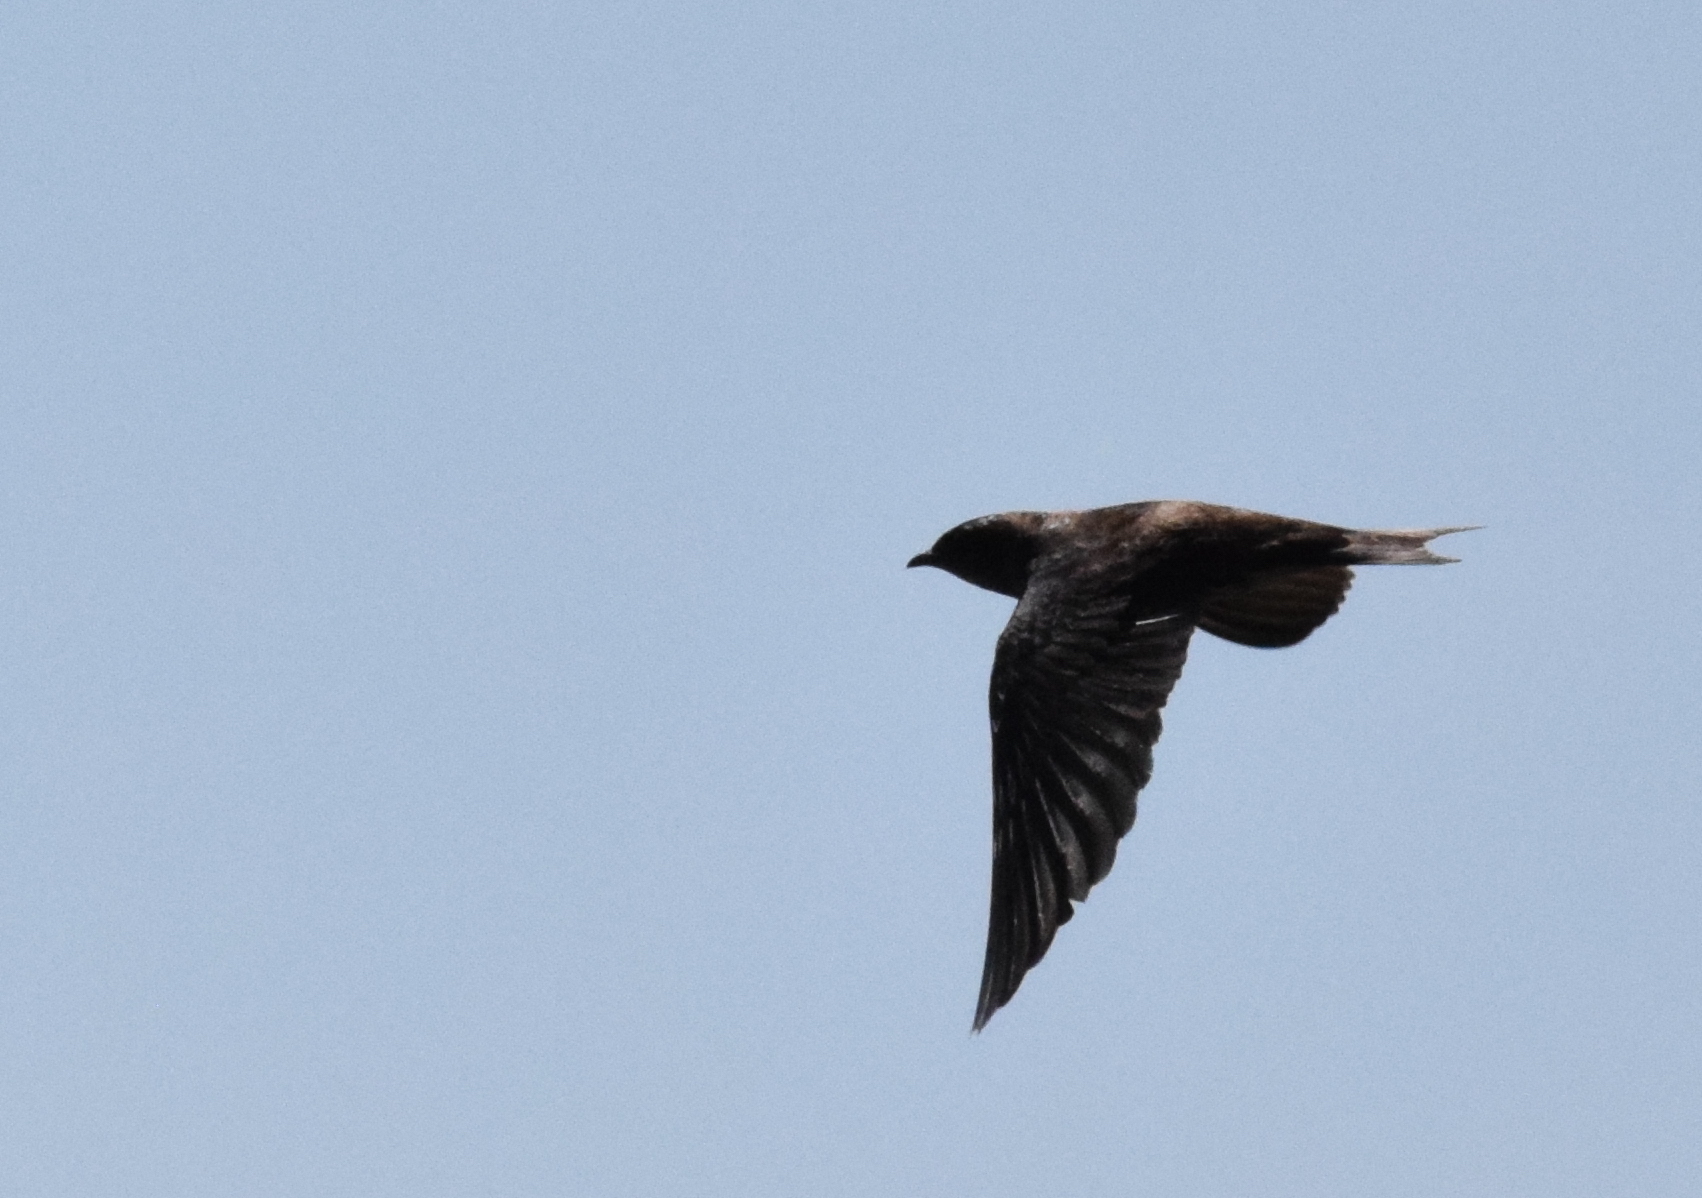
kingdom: Animalia
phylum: Chordata
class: Aves
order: Passeriformes
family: Hirundinidae
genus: Progne
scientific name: Progne subis
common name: Purple martin
